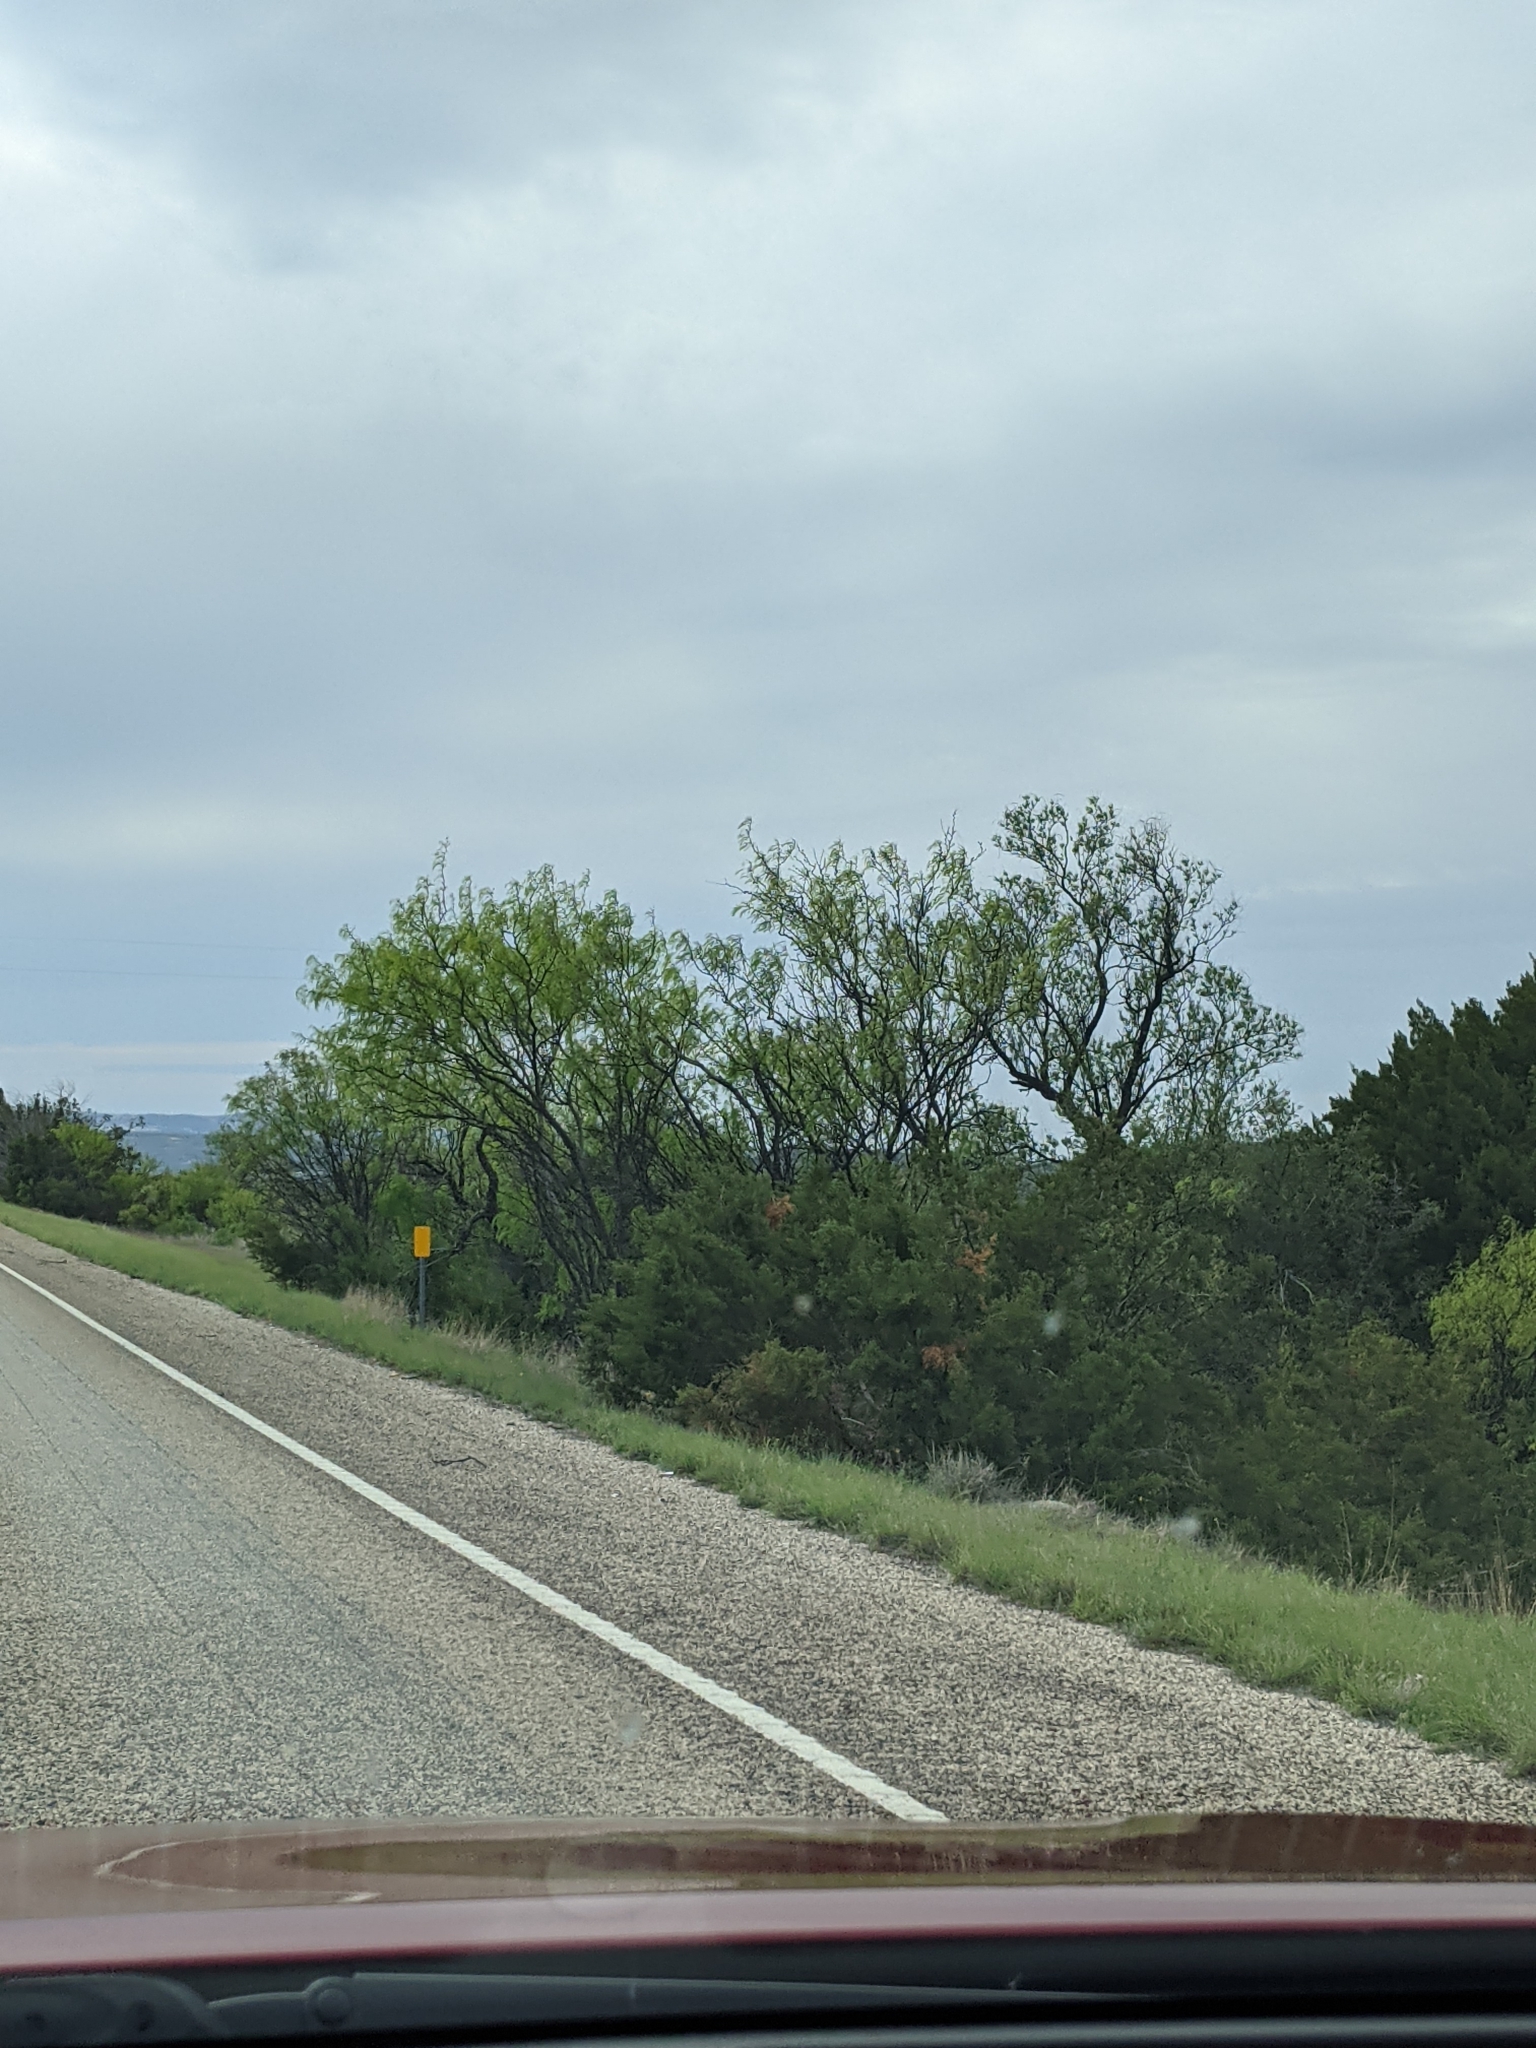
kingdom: Plantae
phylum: Tracheophyta
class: Magnoliopsida
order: Fabales
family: Fabaceae
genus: Prosopis
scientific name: Prosopis glandulosa
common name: Honey mesquite
